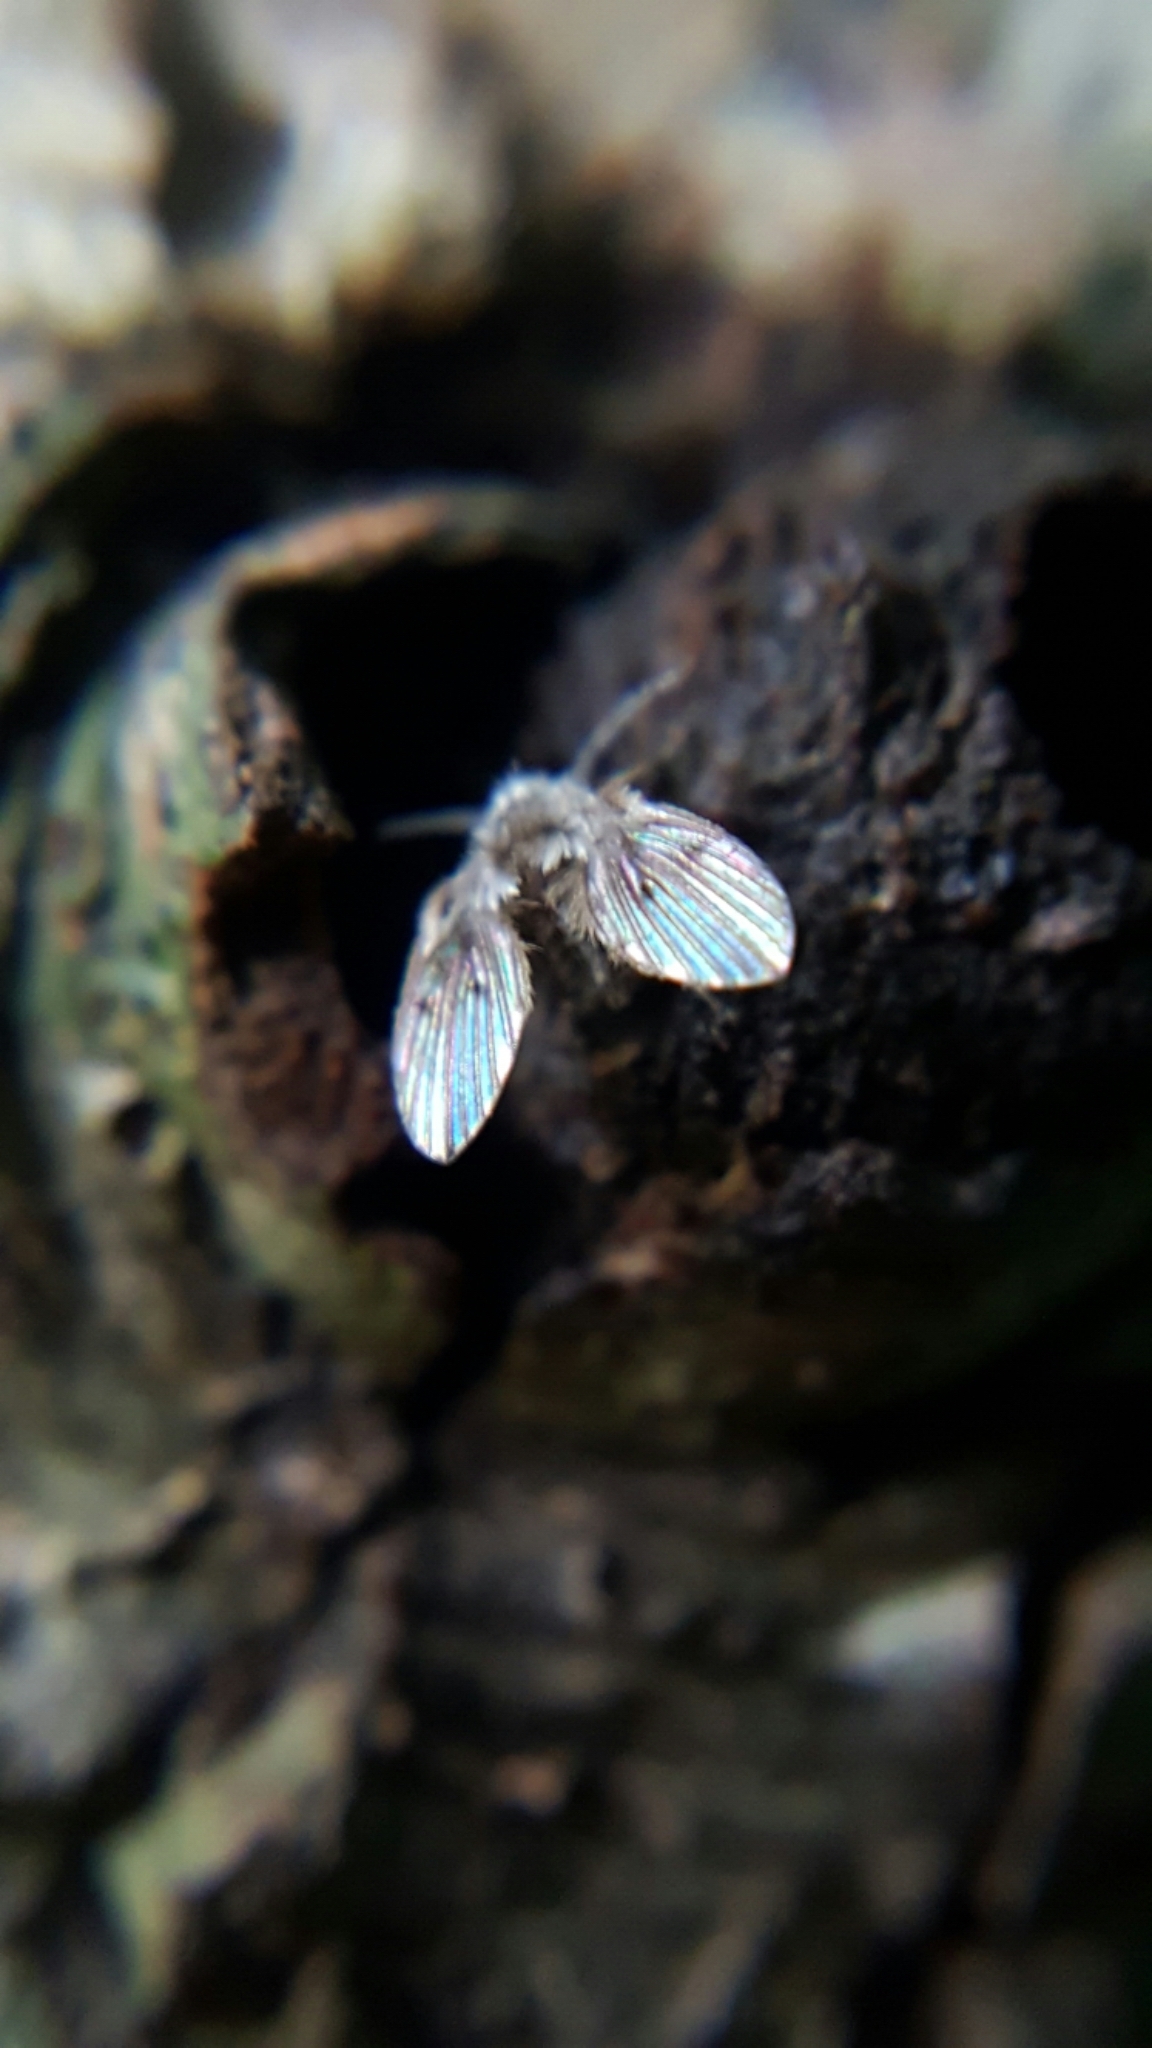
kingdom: Animalia
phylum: Arthropoda
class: Insecta
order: Diptera
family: Psychodidae
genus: Clogmia
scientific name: Clogmia albipunctatus
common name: White-spotted moth fly
